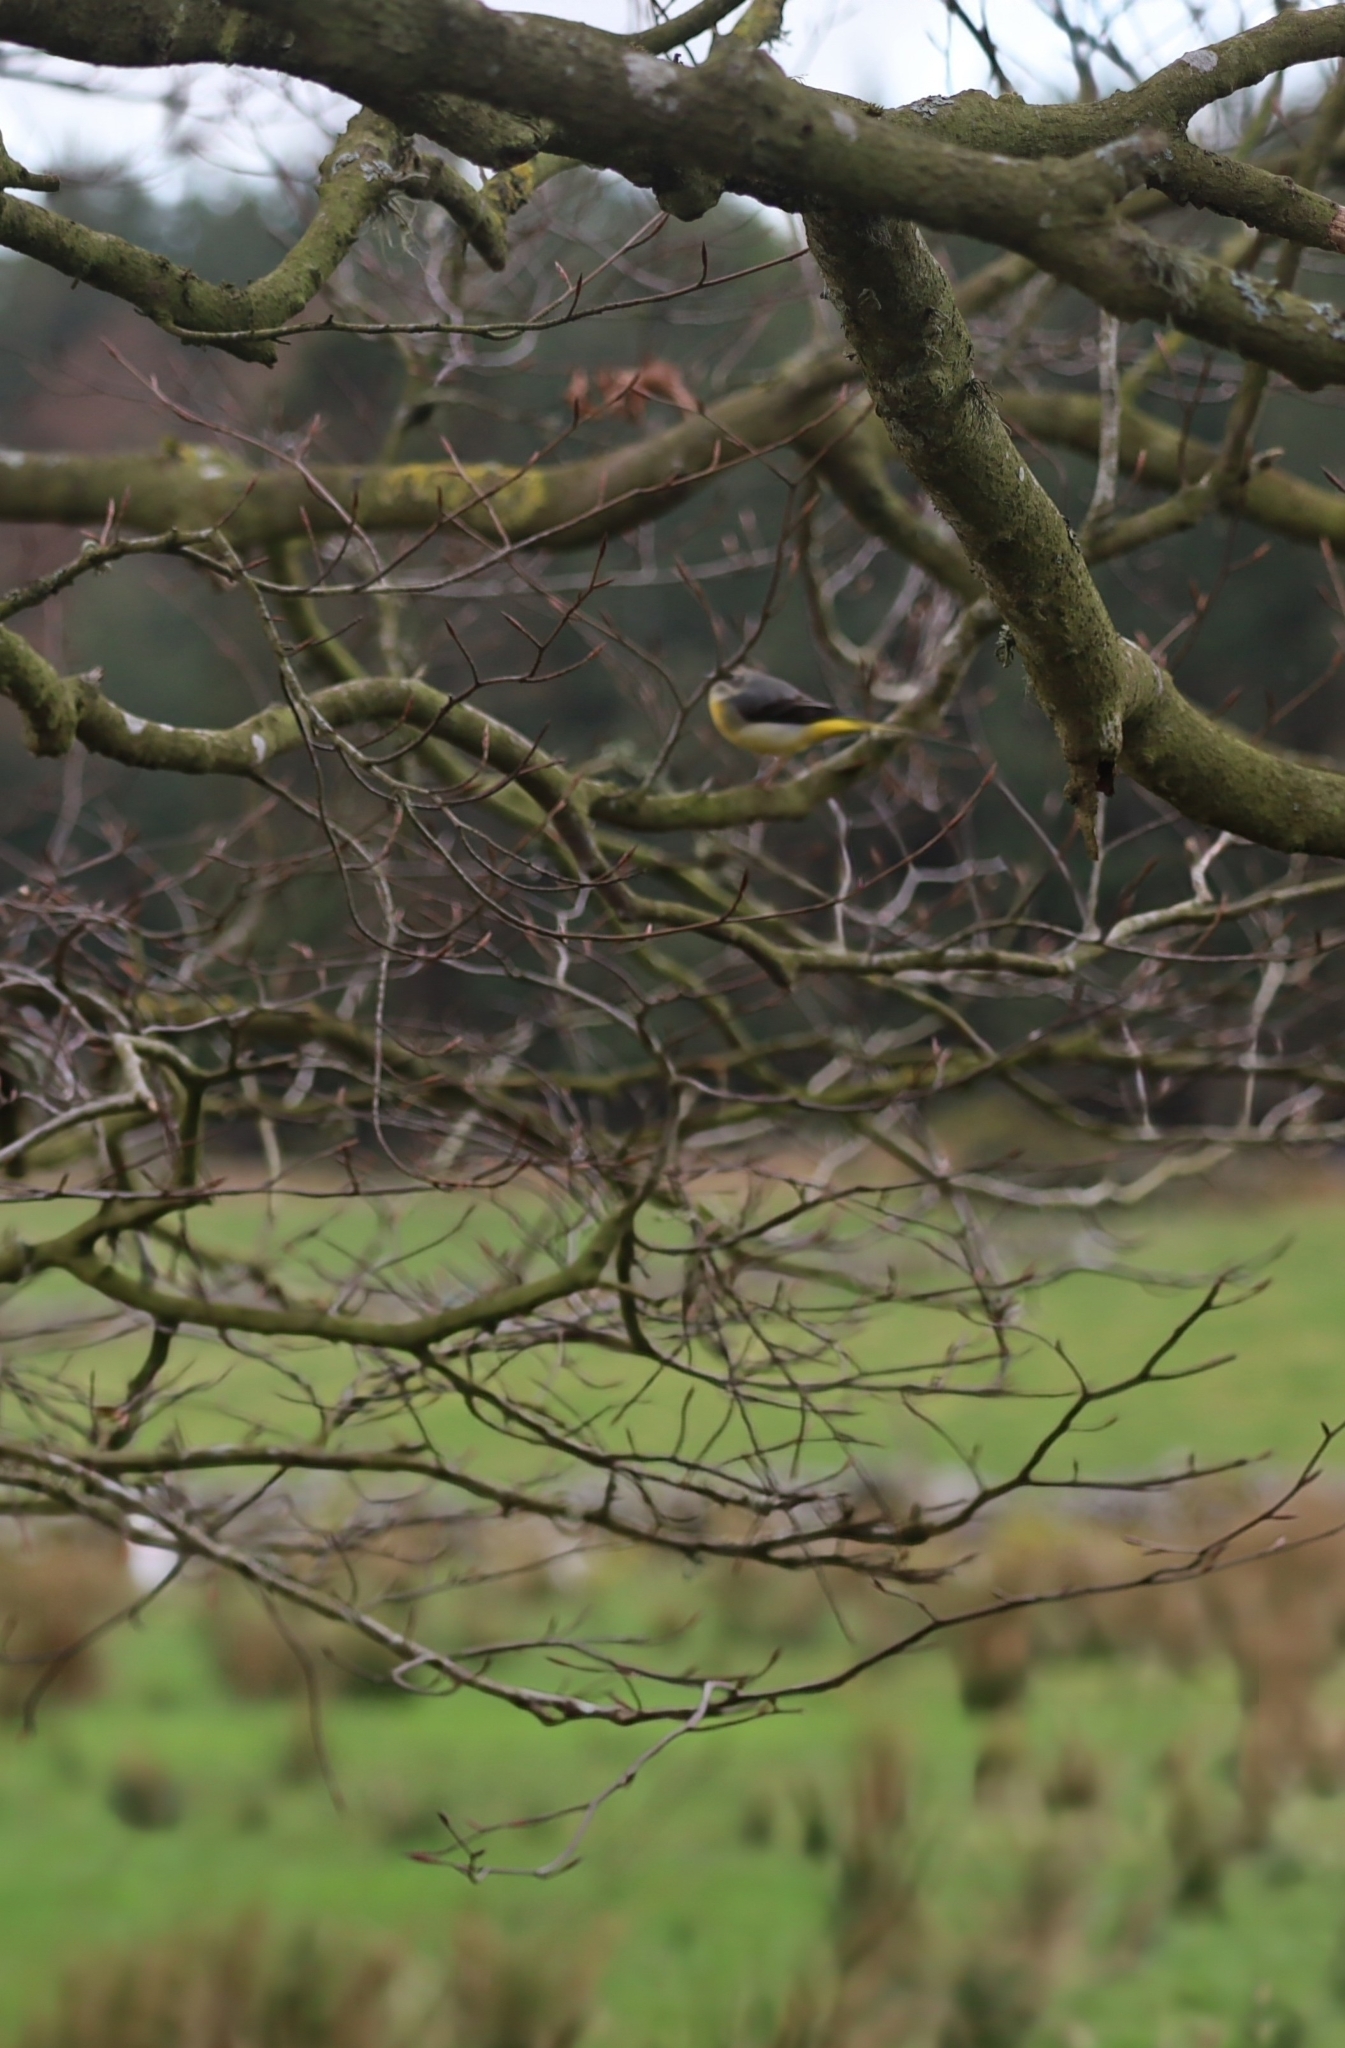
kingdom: Animalia
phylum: Chordata
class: Aves
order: Passeriformes
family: Motacillidae
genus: Motacilla
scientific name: Motacilla cinerea
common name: Grey wagtail
